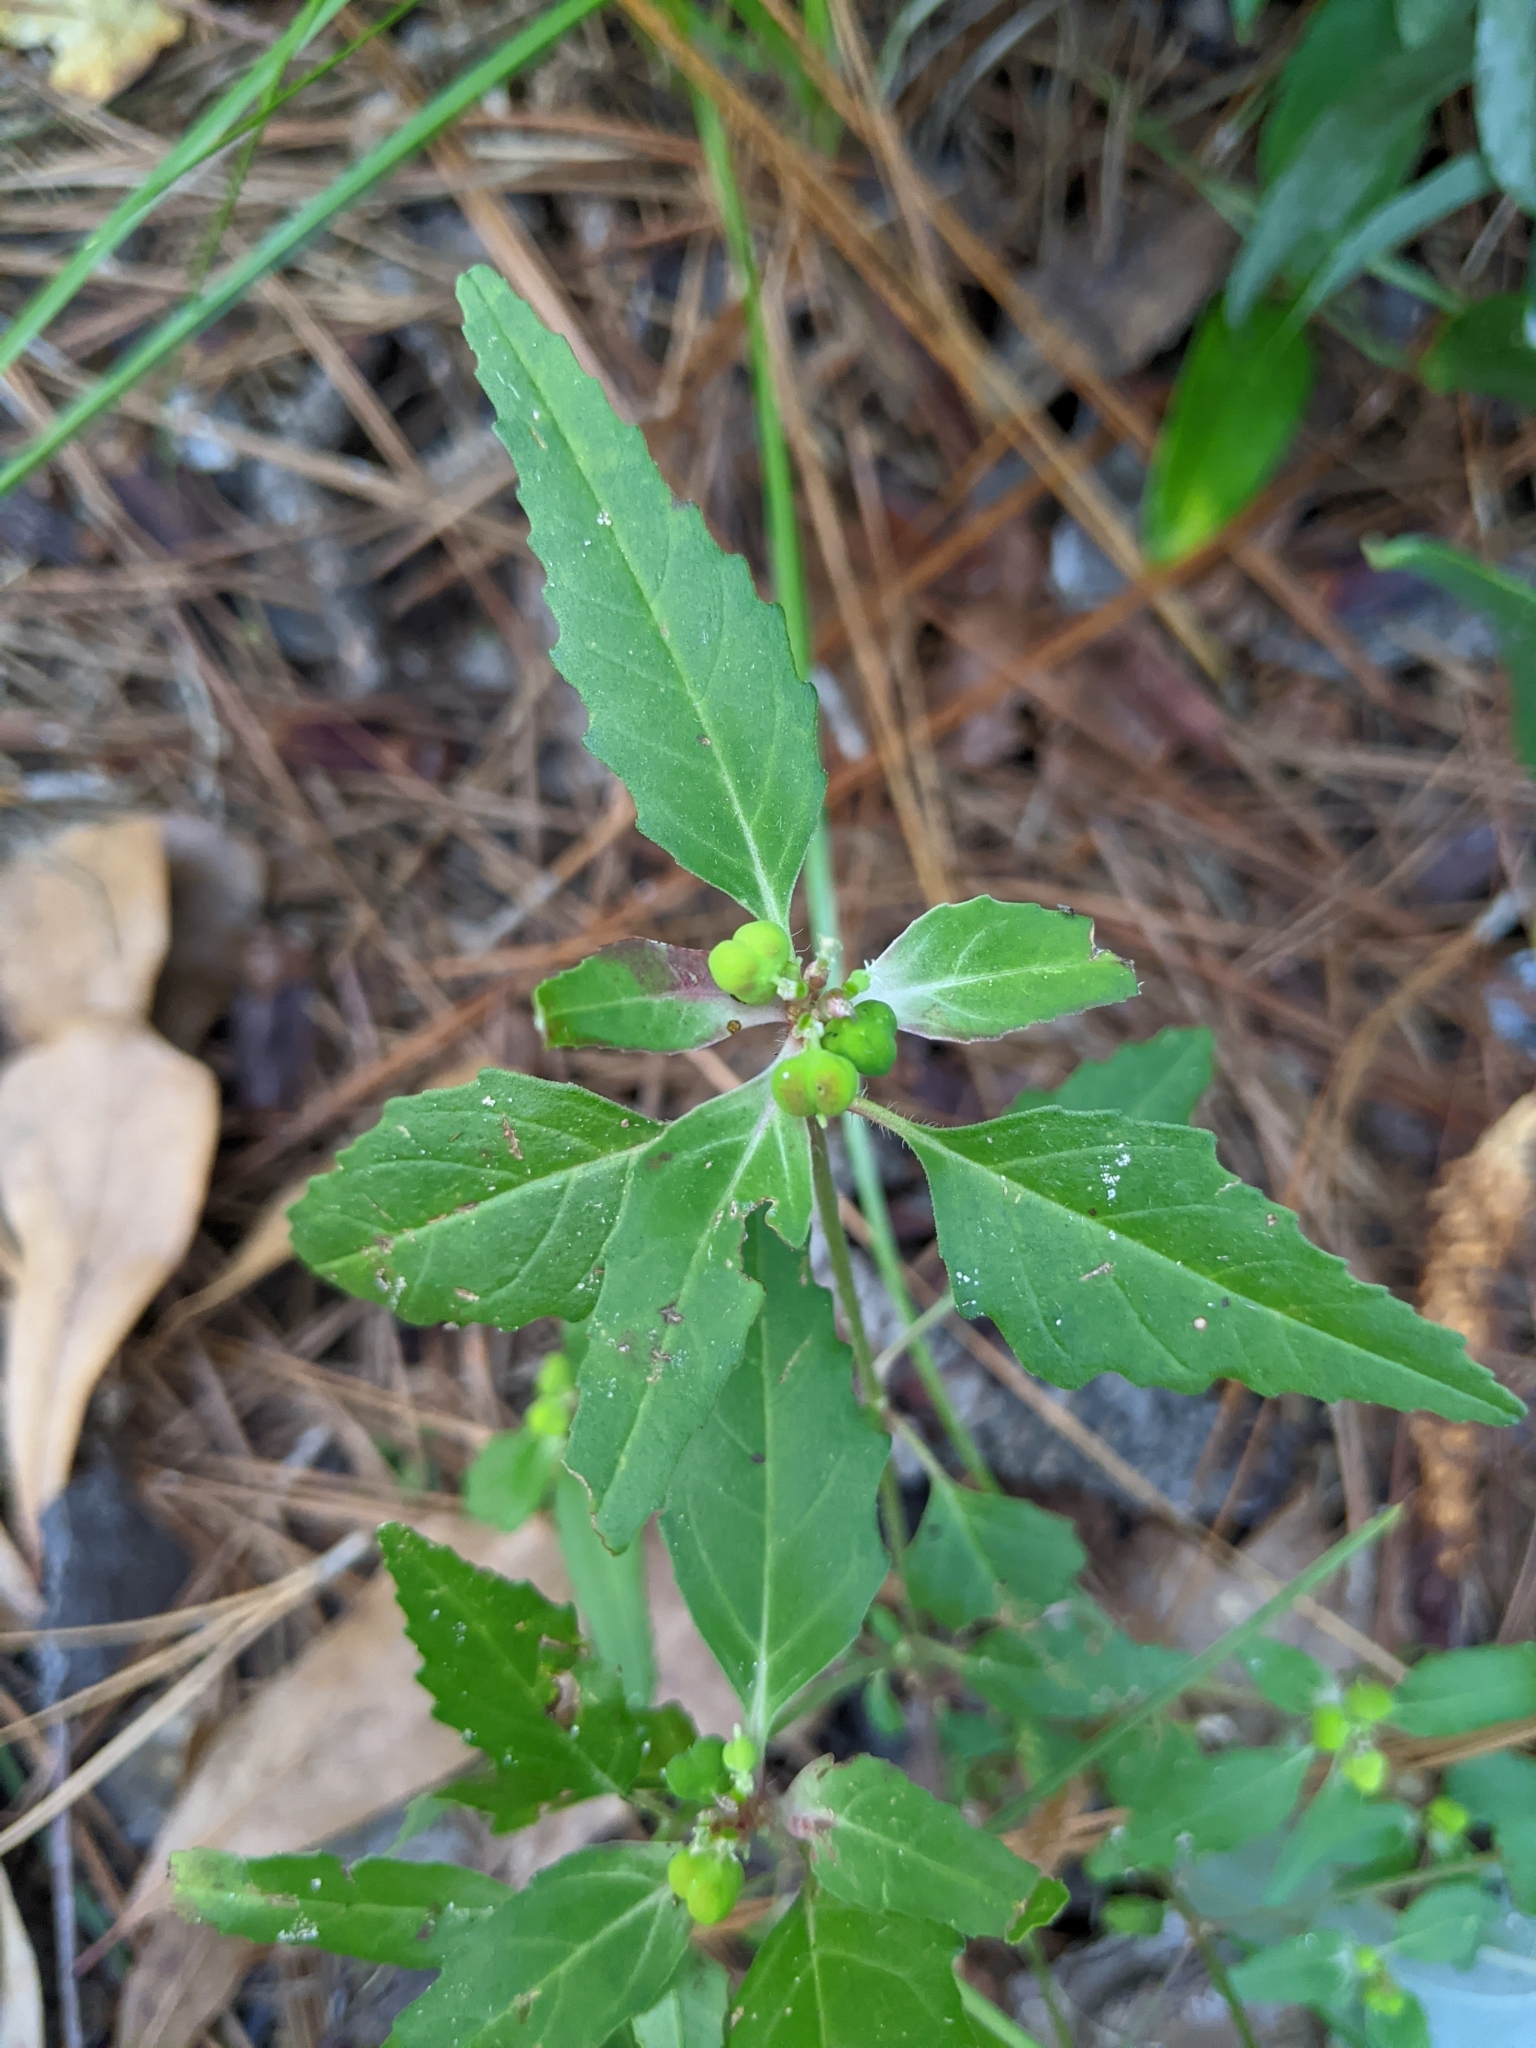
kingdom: Plantae
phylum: Tracheophyta
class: Magnoliopsida
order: Malpighiales
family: Euphorbiaceae
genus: Euphorbia
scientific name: Euphorbia dentata
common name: Dentate spurge
